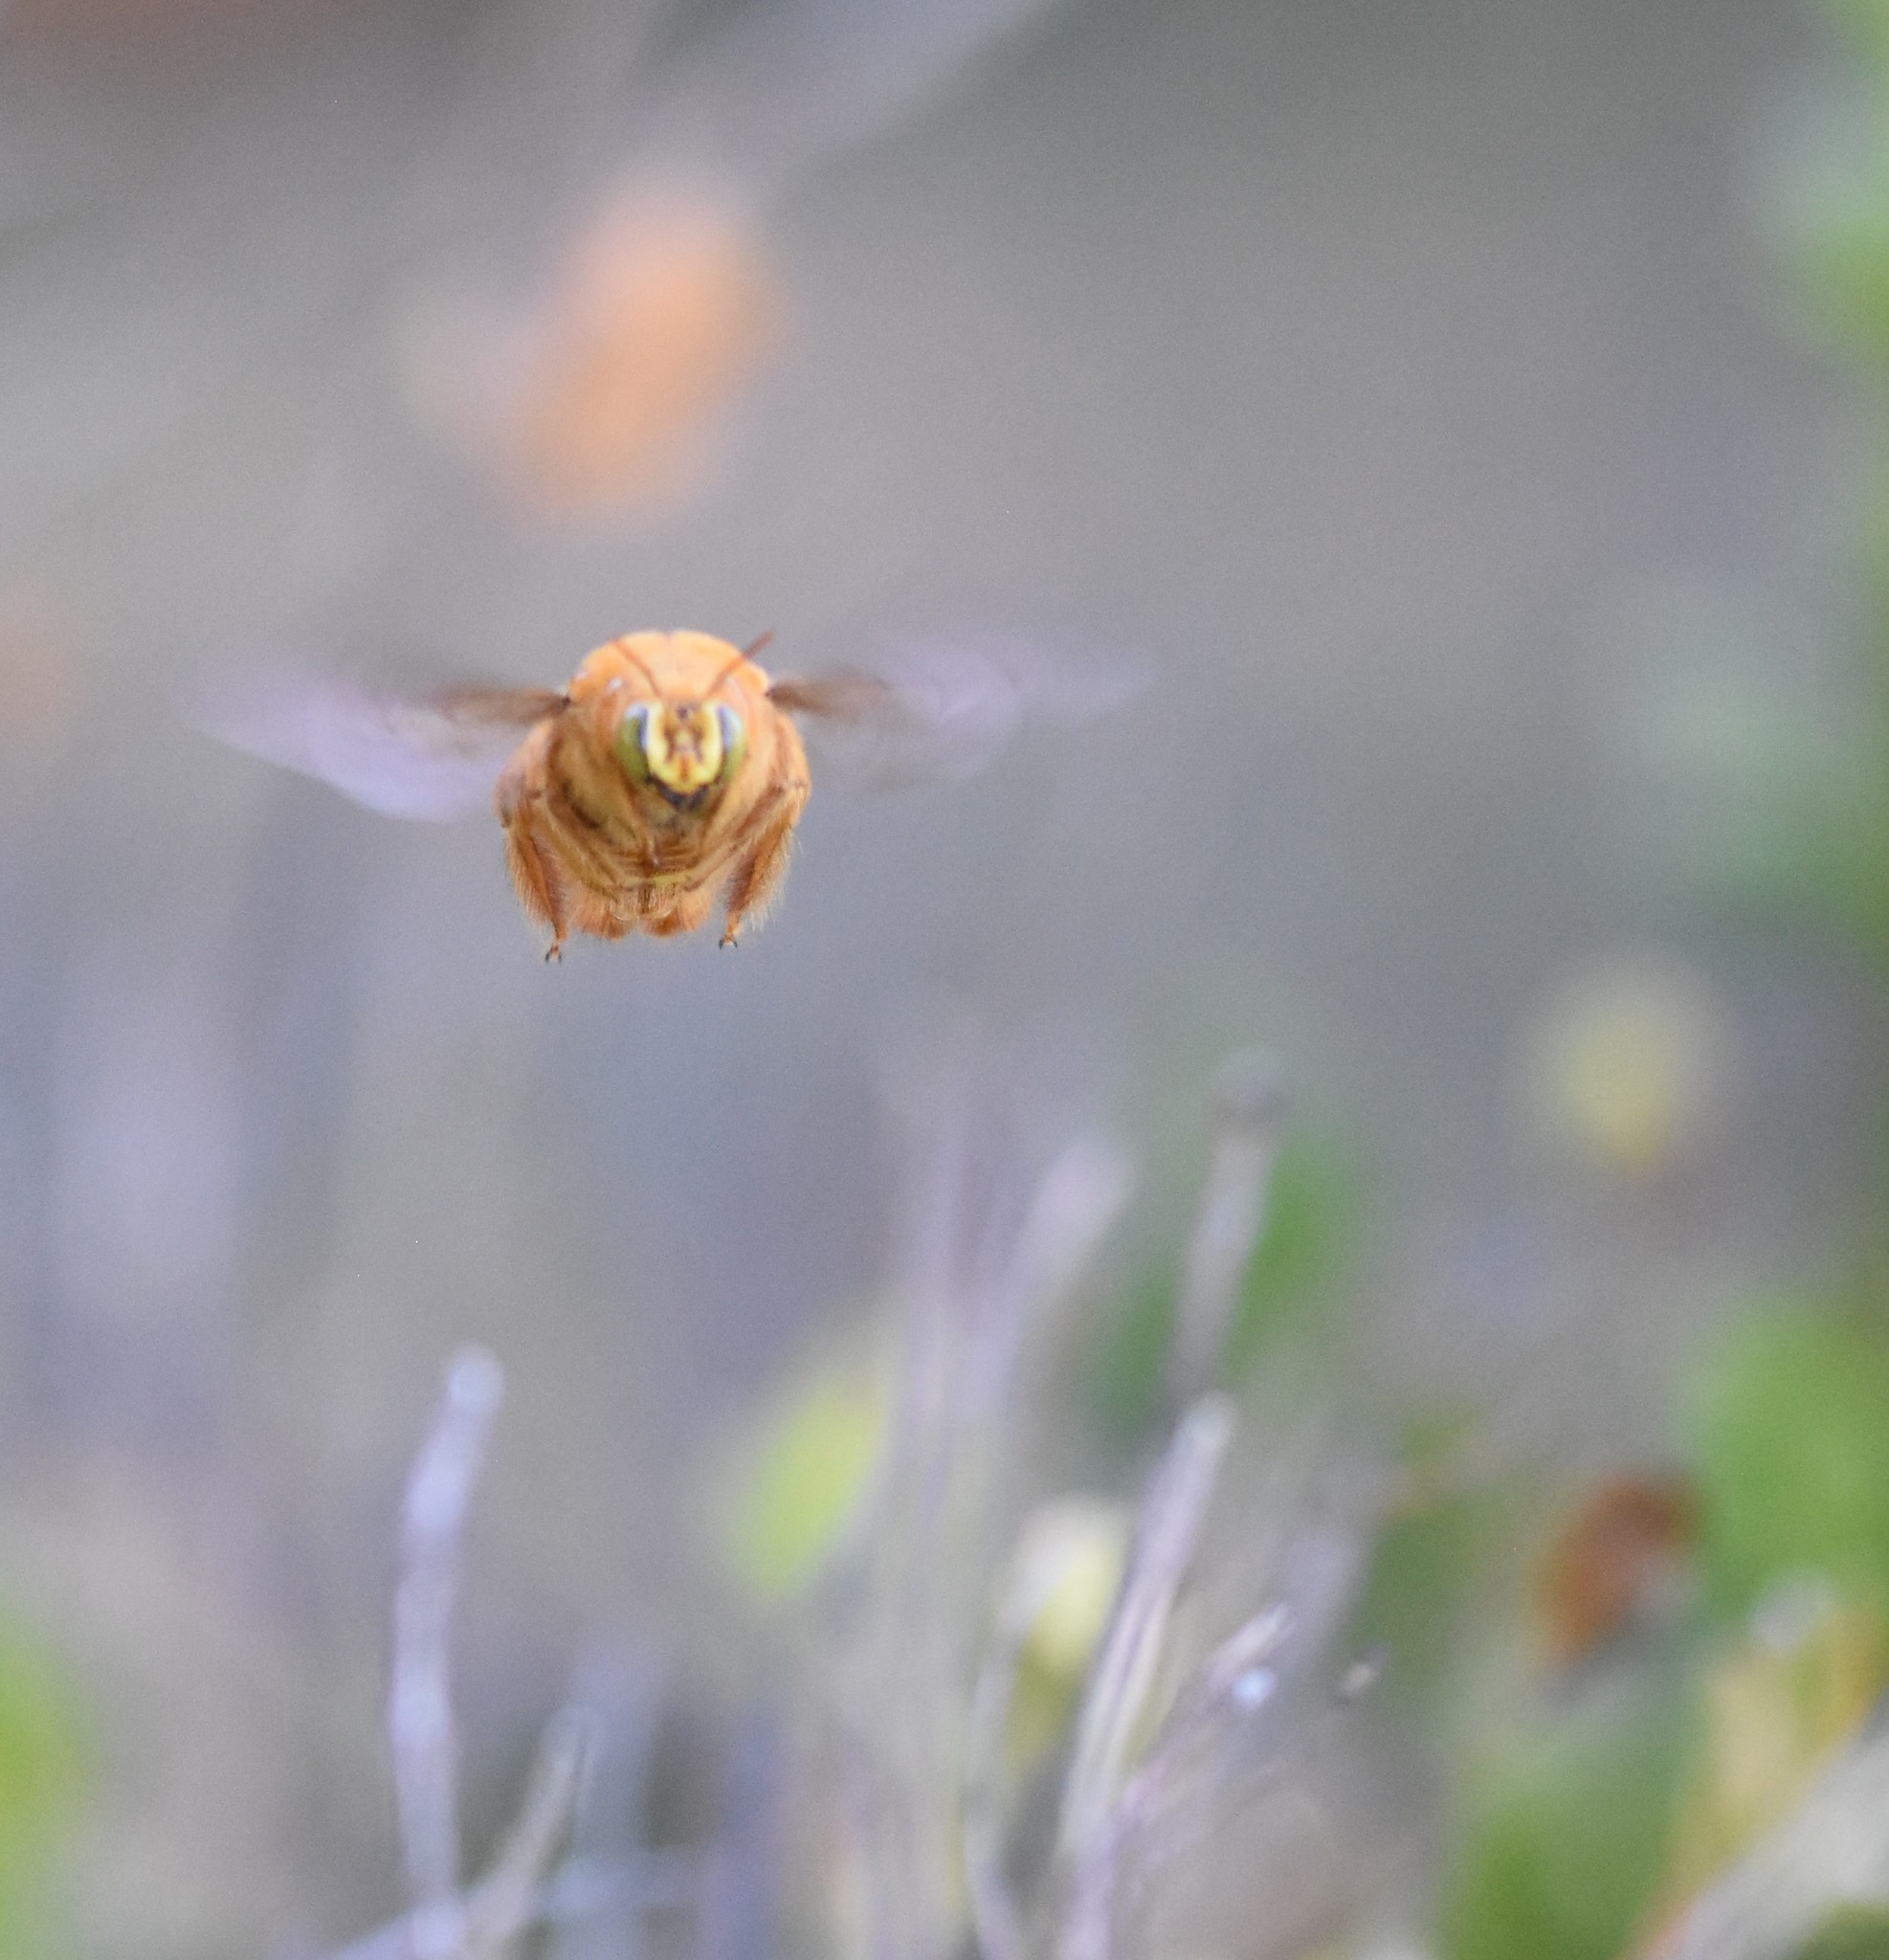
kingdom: Animalia
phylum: Arthropoda
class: Insecta
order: Hymenoptera
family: Apidae
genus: Xylocopa
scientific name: Xylocopa sonorina
